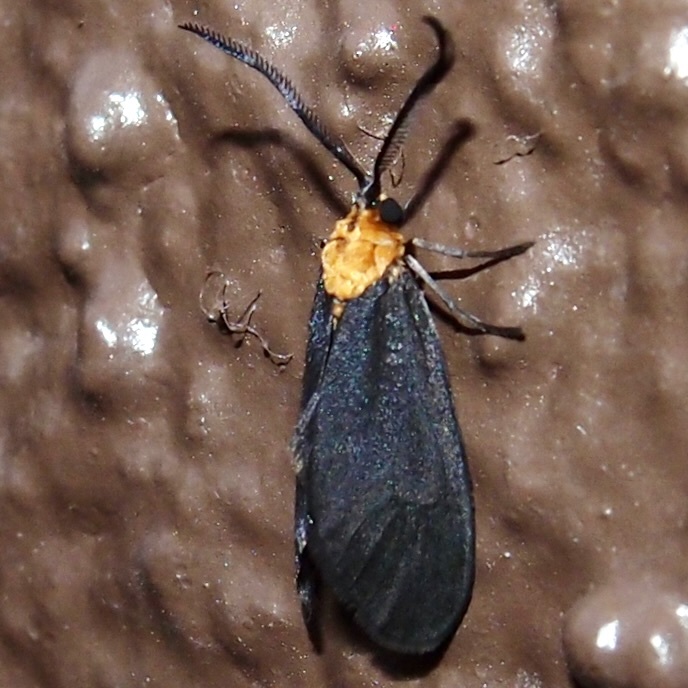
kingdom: Animalia
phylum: Arthropoda
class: Insecta
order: Lepidoptera
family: Zygaenidae
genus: Neoilliberis
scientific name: Neoilliberis fusca
